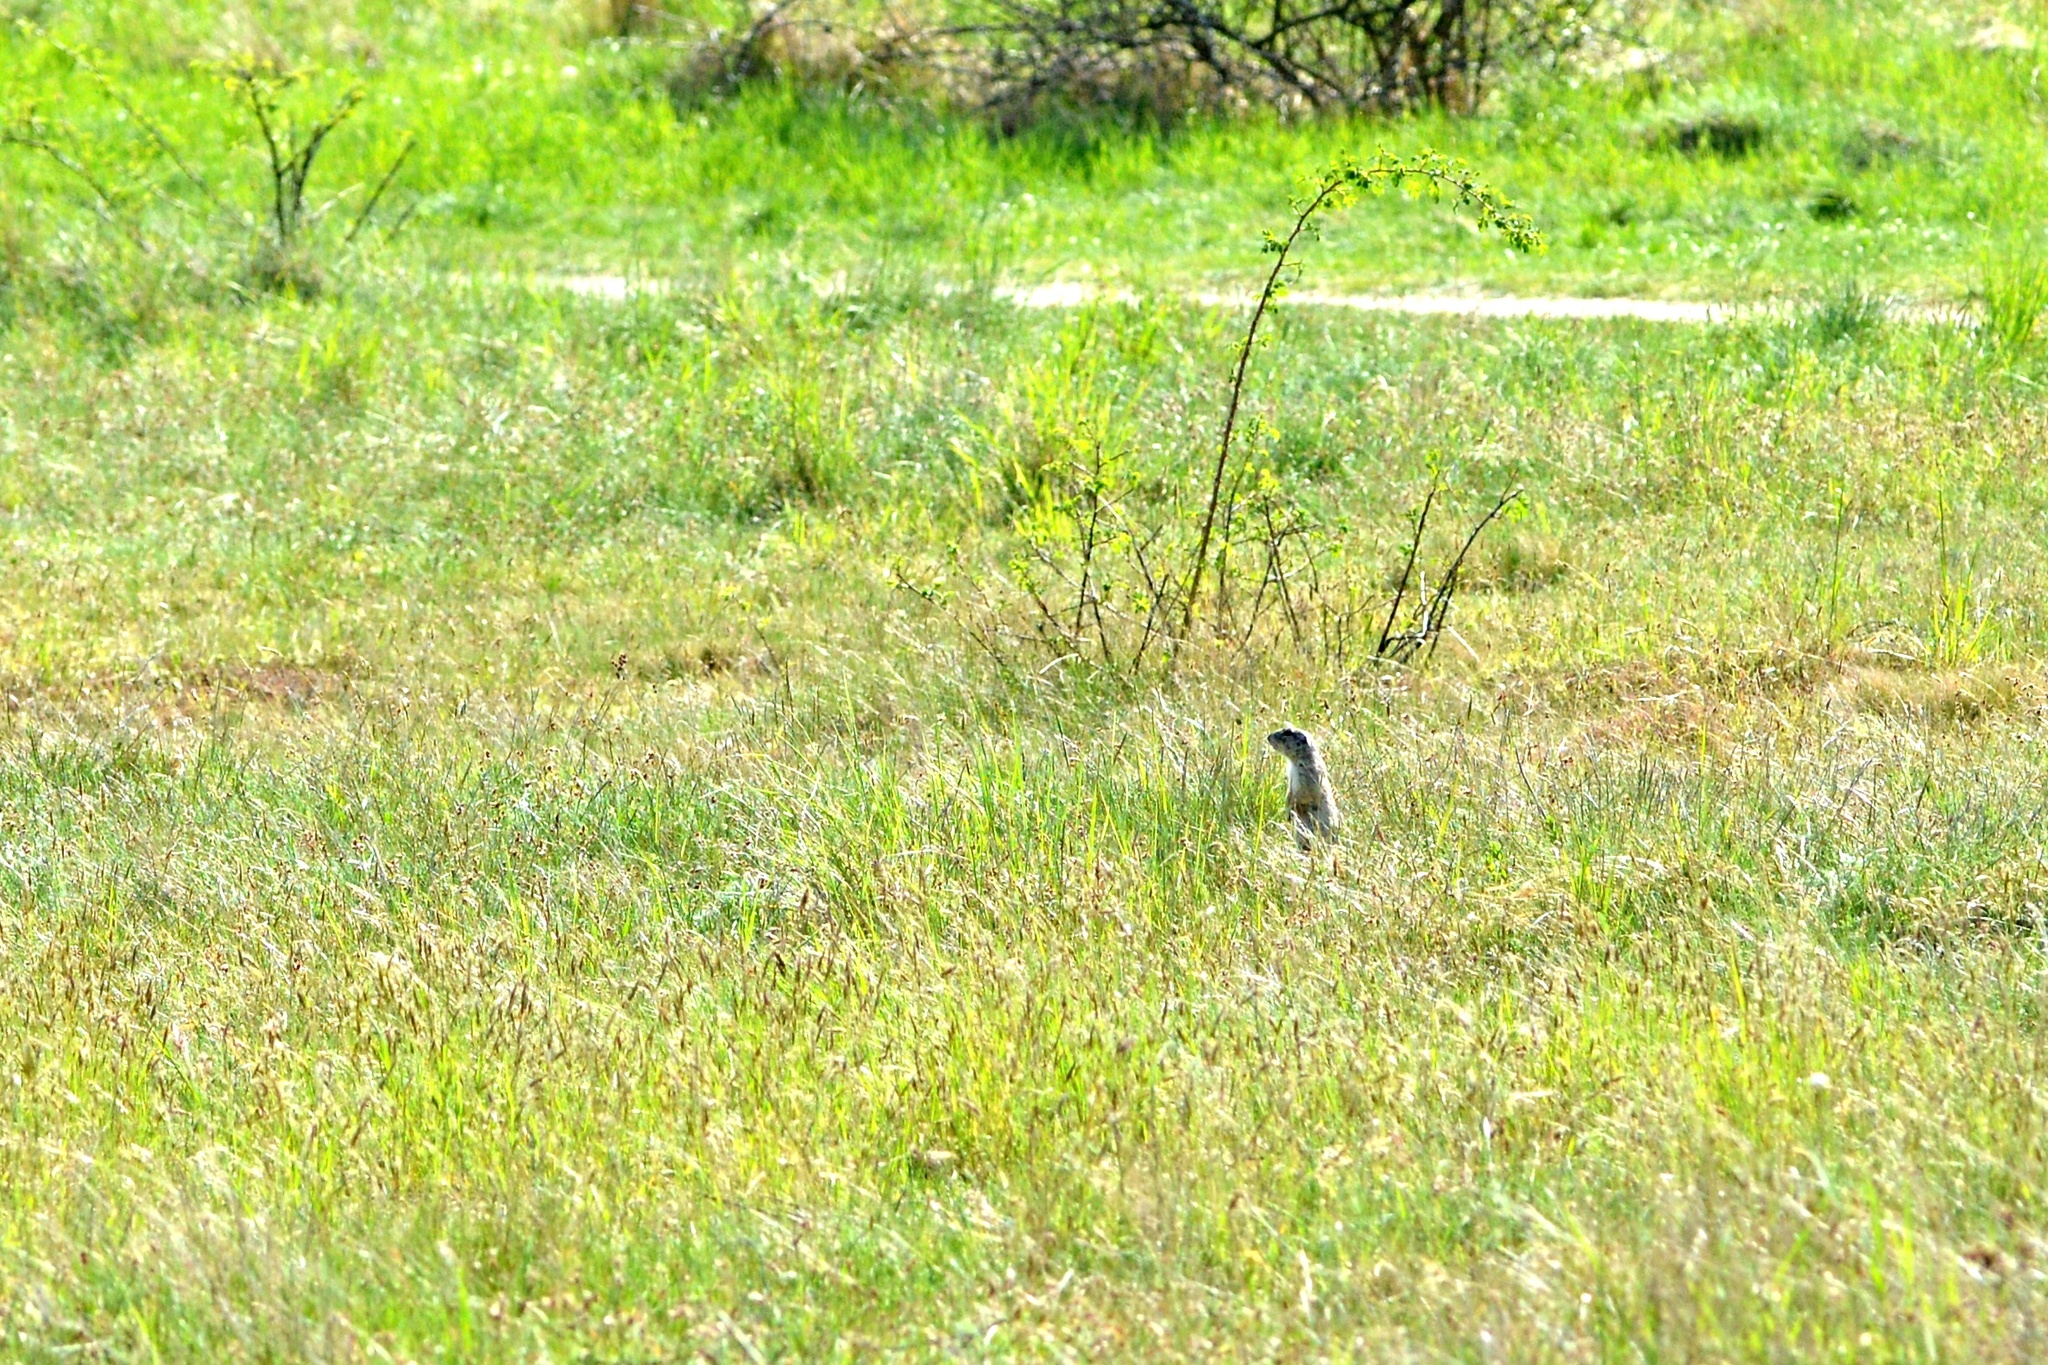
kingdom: Animalia
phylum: Chordata
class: Mammalia
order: Rodentia
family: Sciuridae
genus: Spermophilus
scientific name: Spermophilus citellus
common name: European ground squirrel
